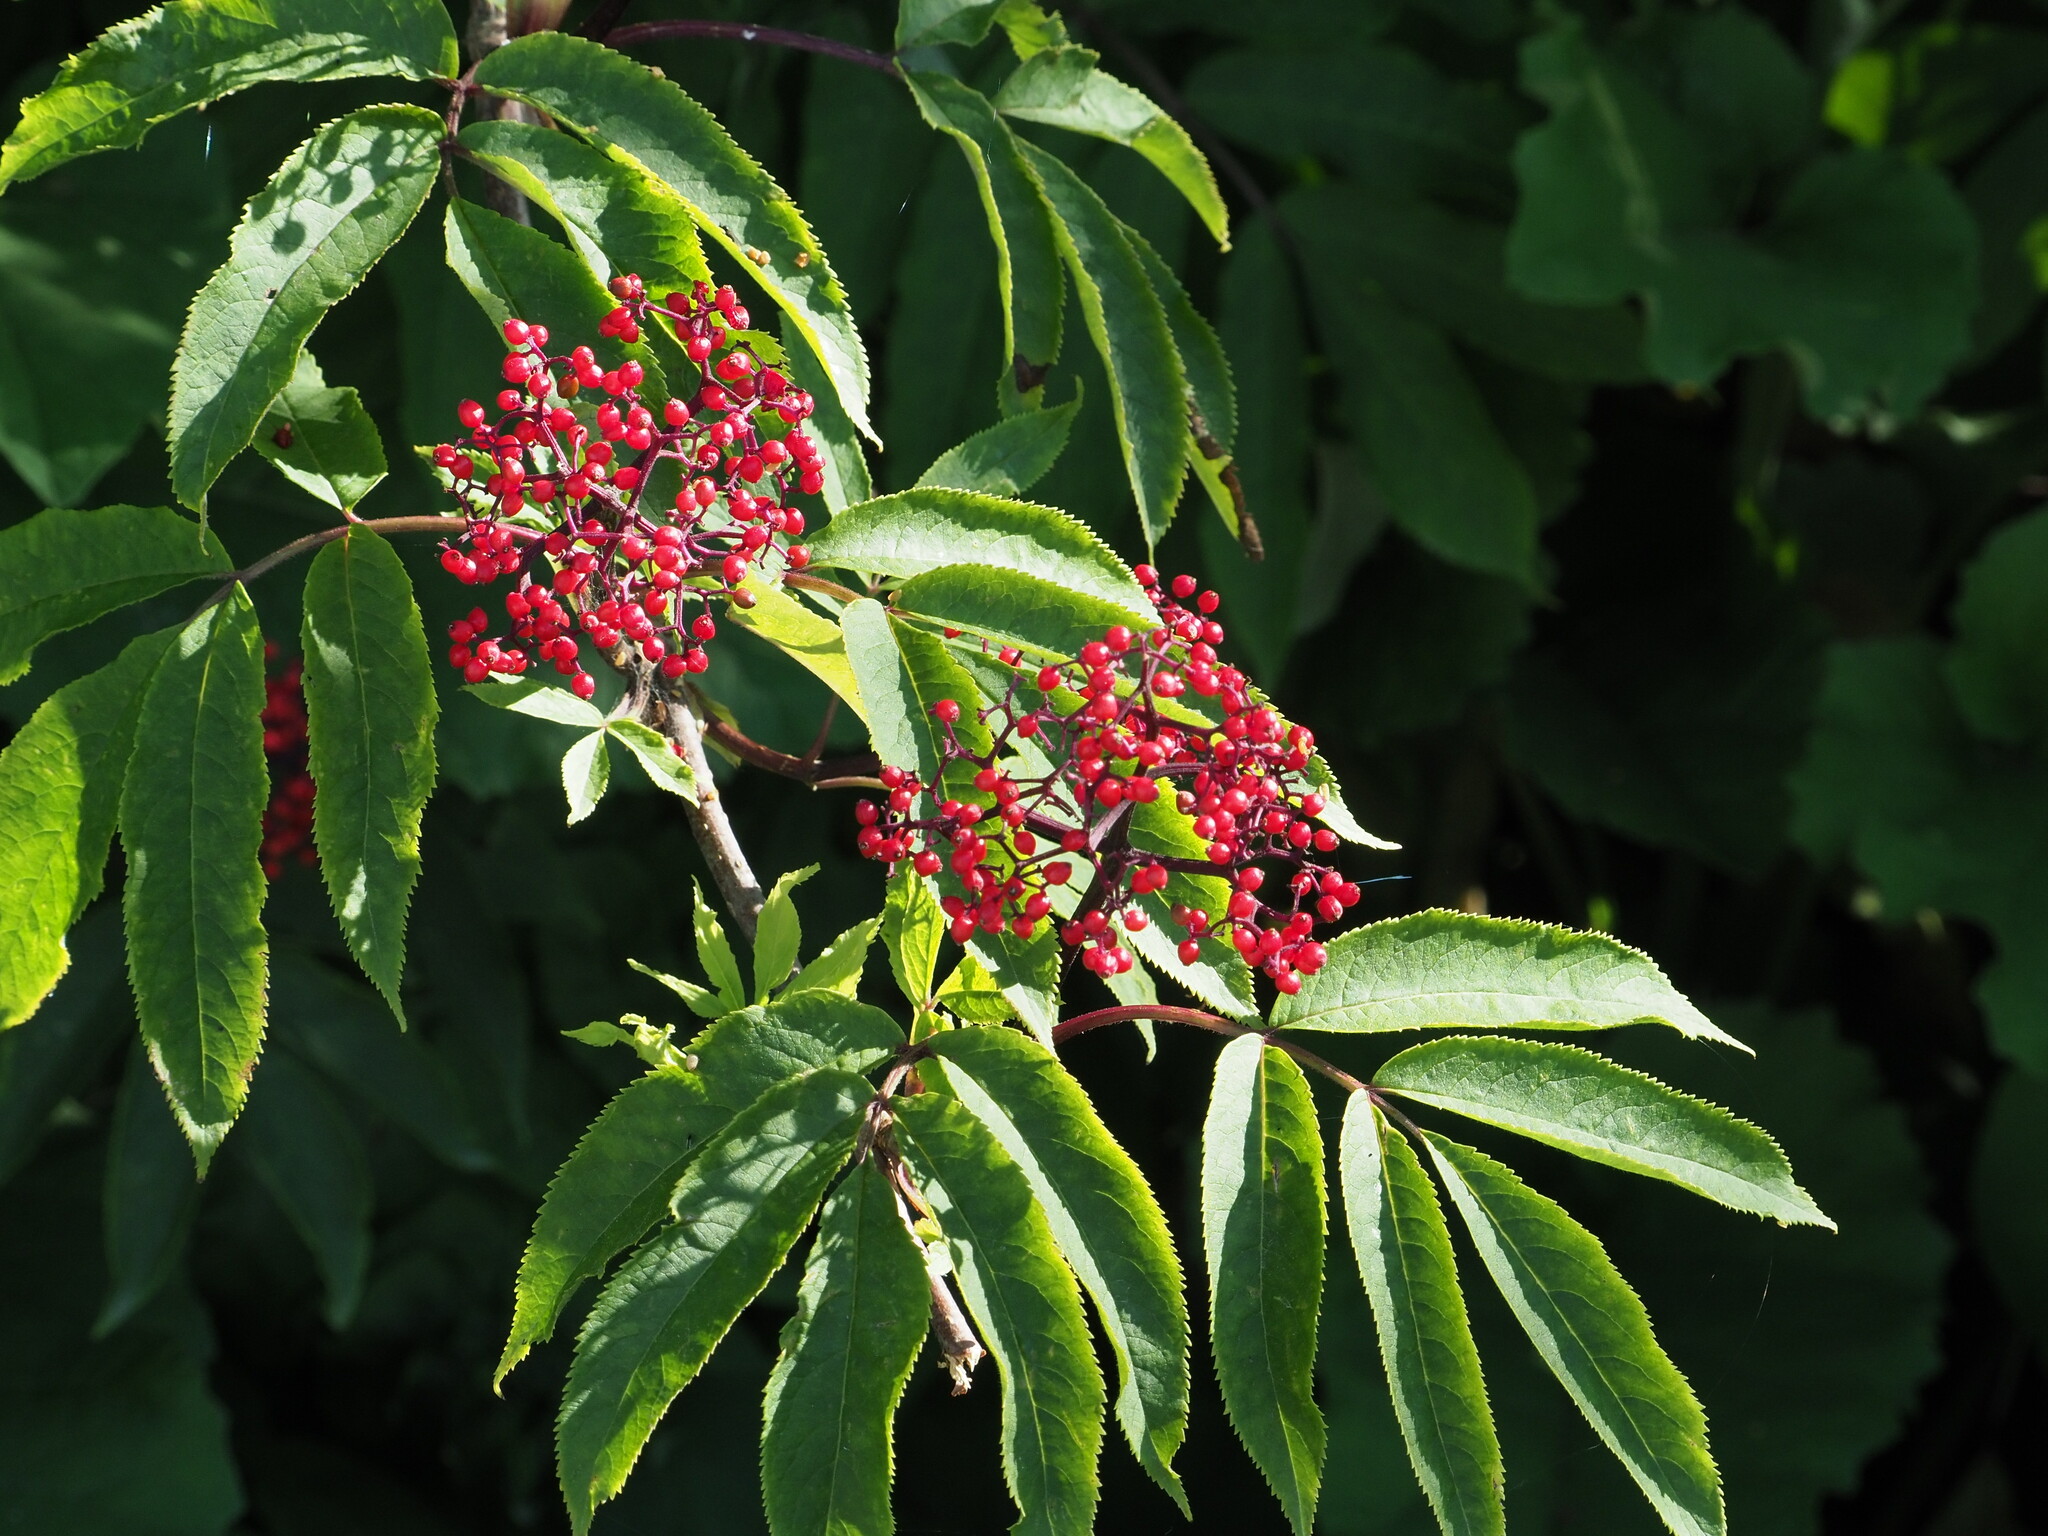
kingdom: Plantae
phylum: Tracheophyta
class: Magnoliopsida
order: Dipsacales
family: Viburnaceae
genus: Sambucus
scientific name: Sambucus racemosa
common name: Red-berried elder
